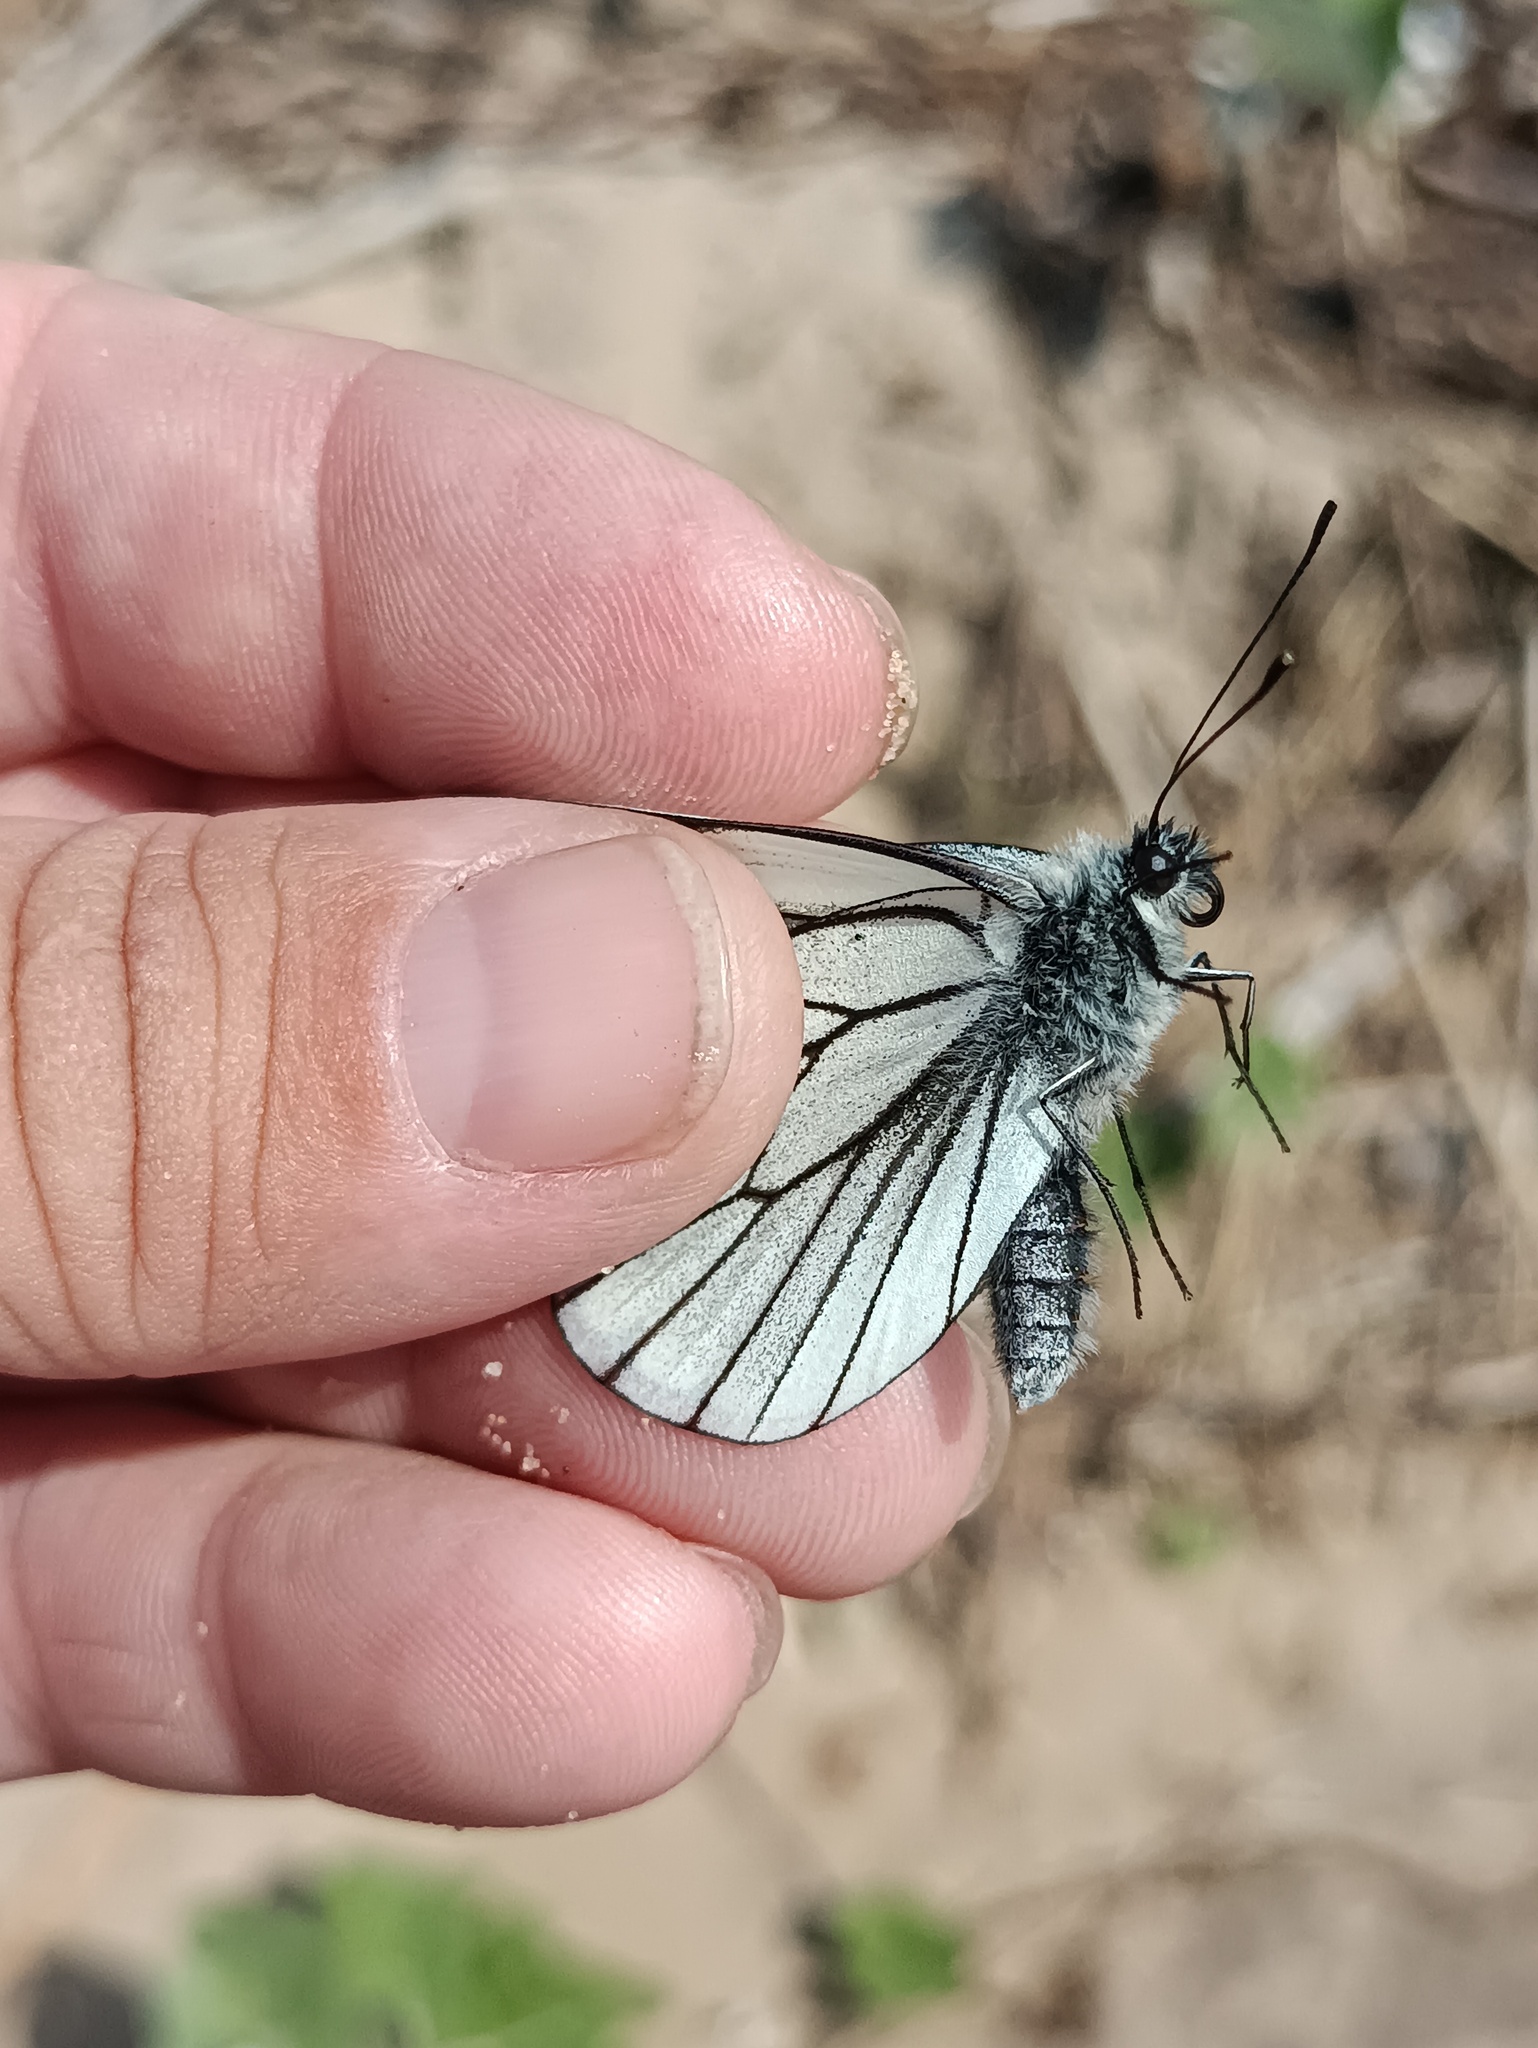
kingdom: Animalia
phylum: Arthropoda
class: Insecta
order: Lepidoptera
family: Pieridae
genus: Aporia
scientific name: Aporia crataegi
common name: Black-veined white
